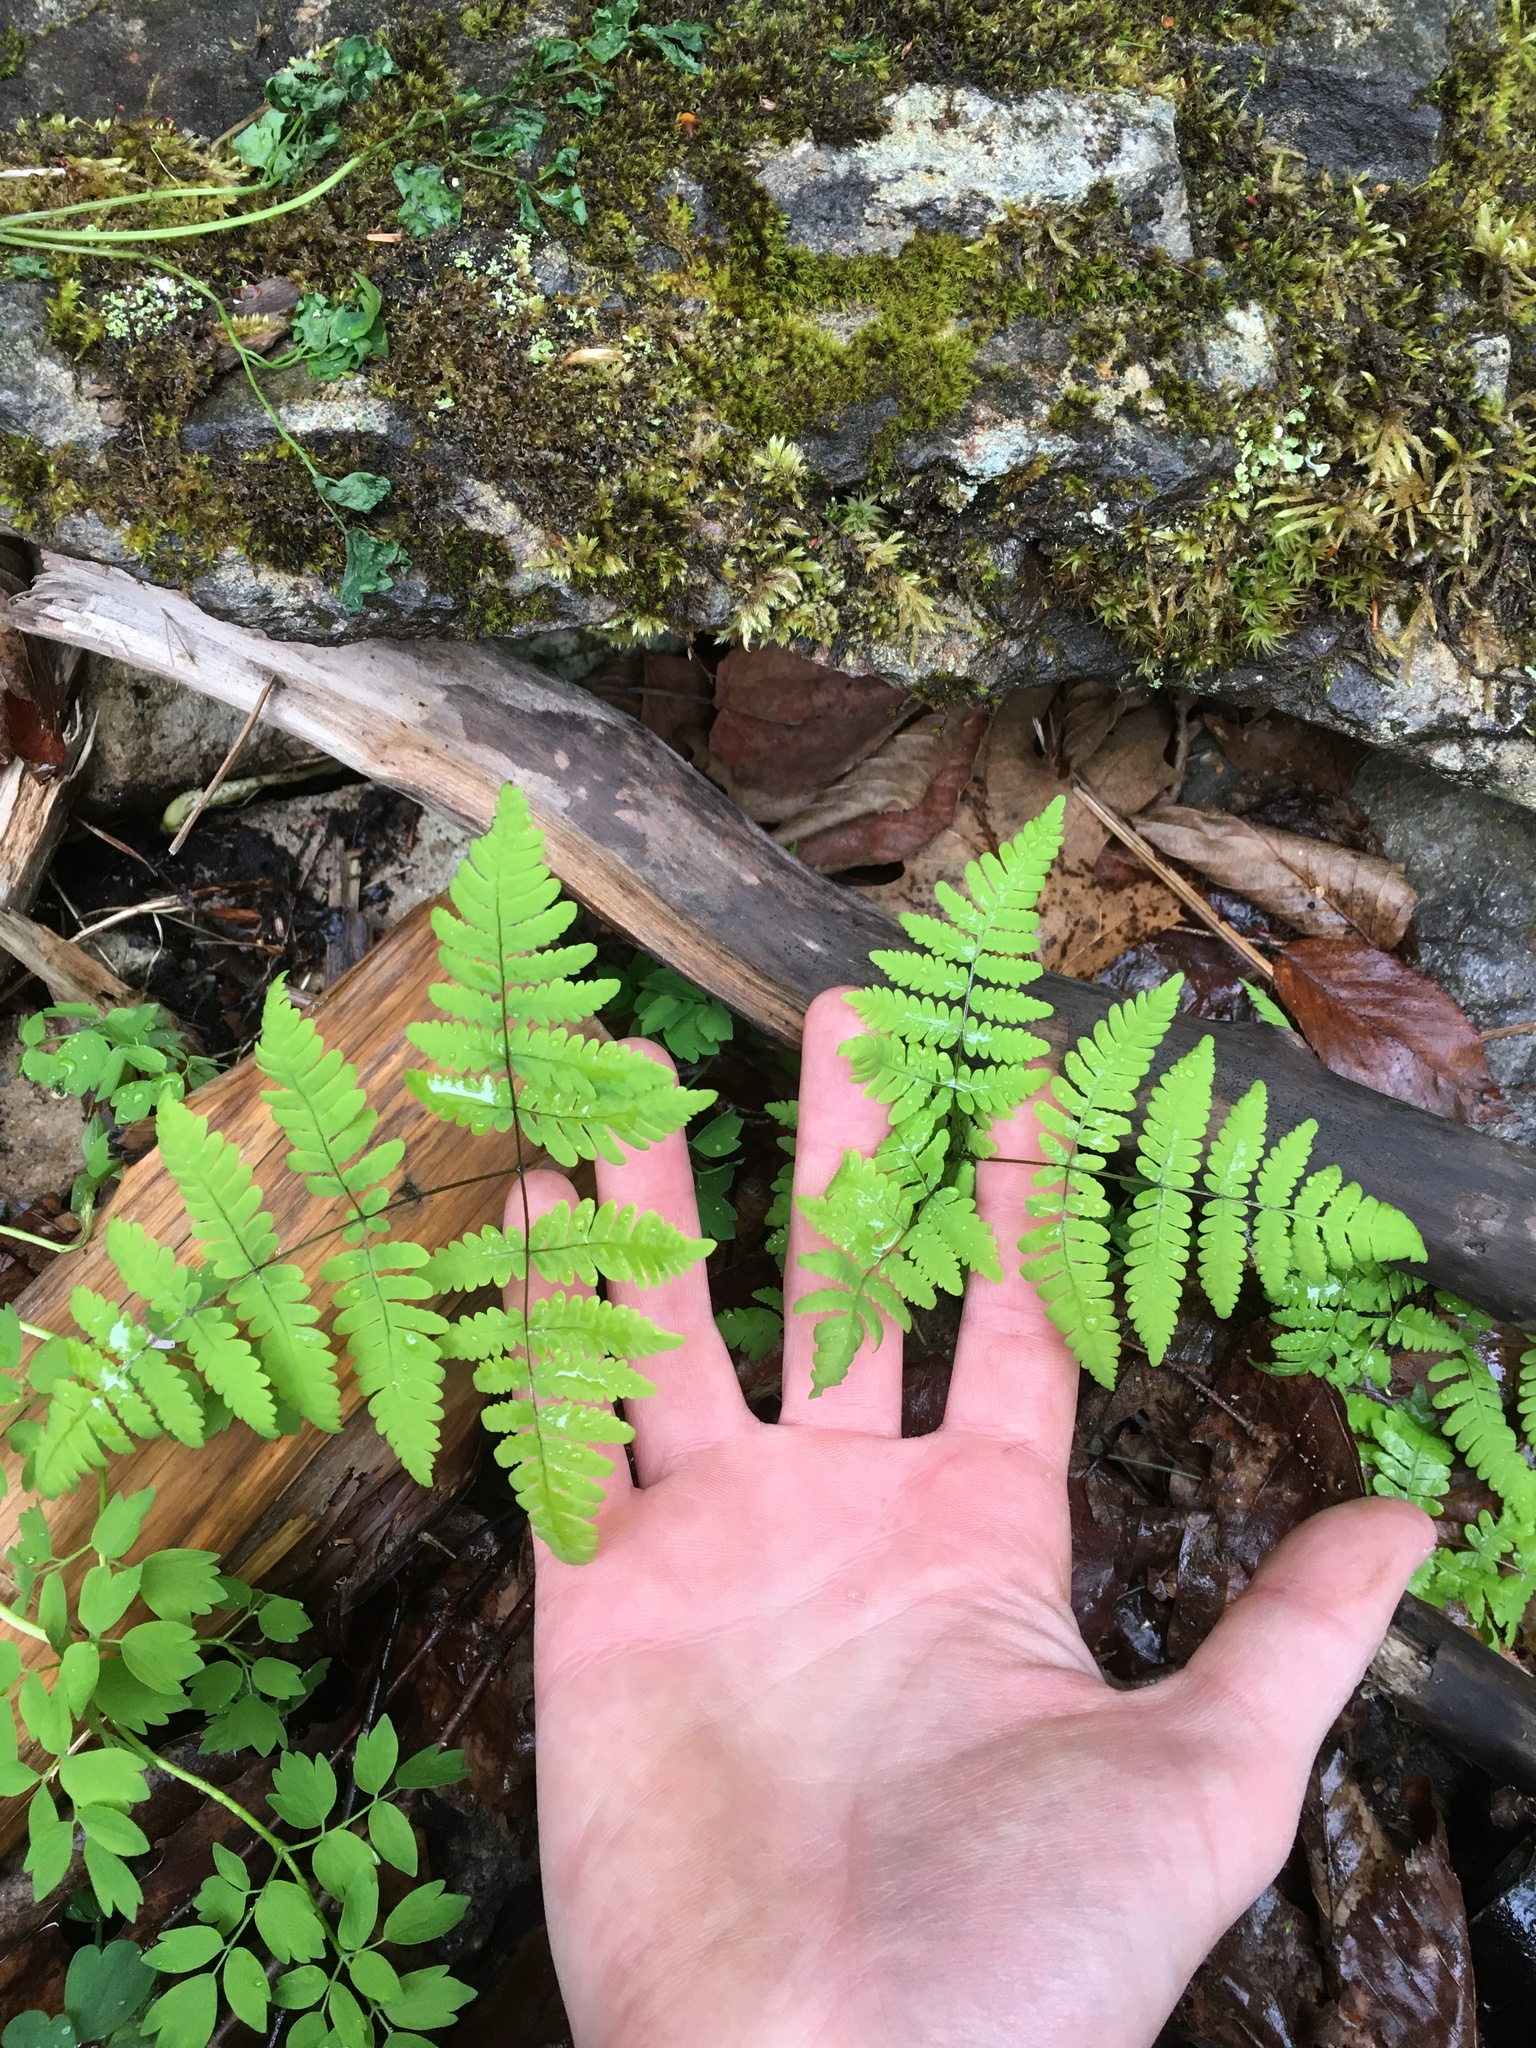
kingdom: Plantae
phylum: Tracheophyta
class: Polypodiopsida
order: Polypodiales
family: Cystopteridaceae
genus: Gymnocarpium
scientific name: Gymnocarpium dryopteris
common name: Oak fern
